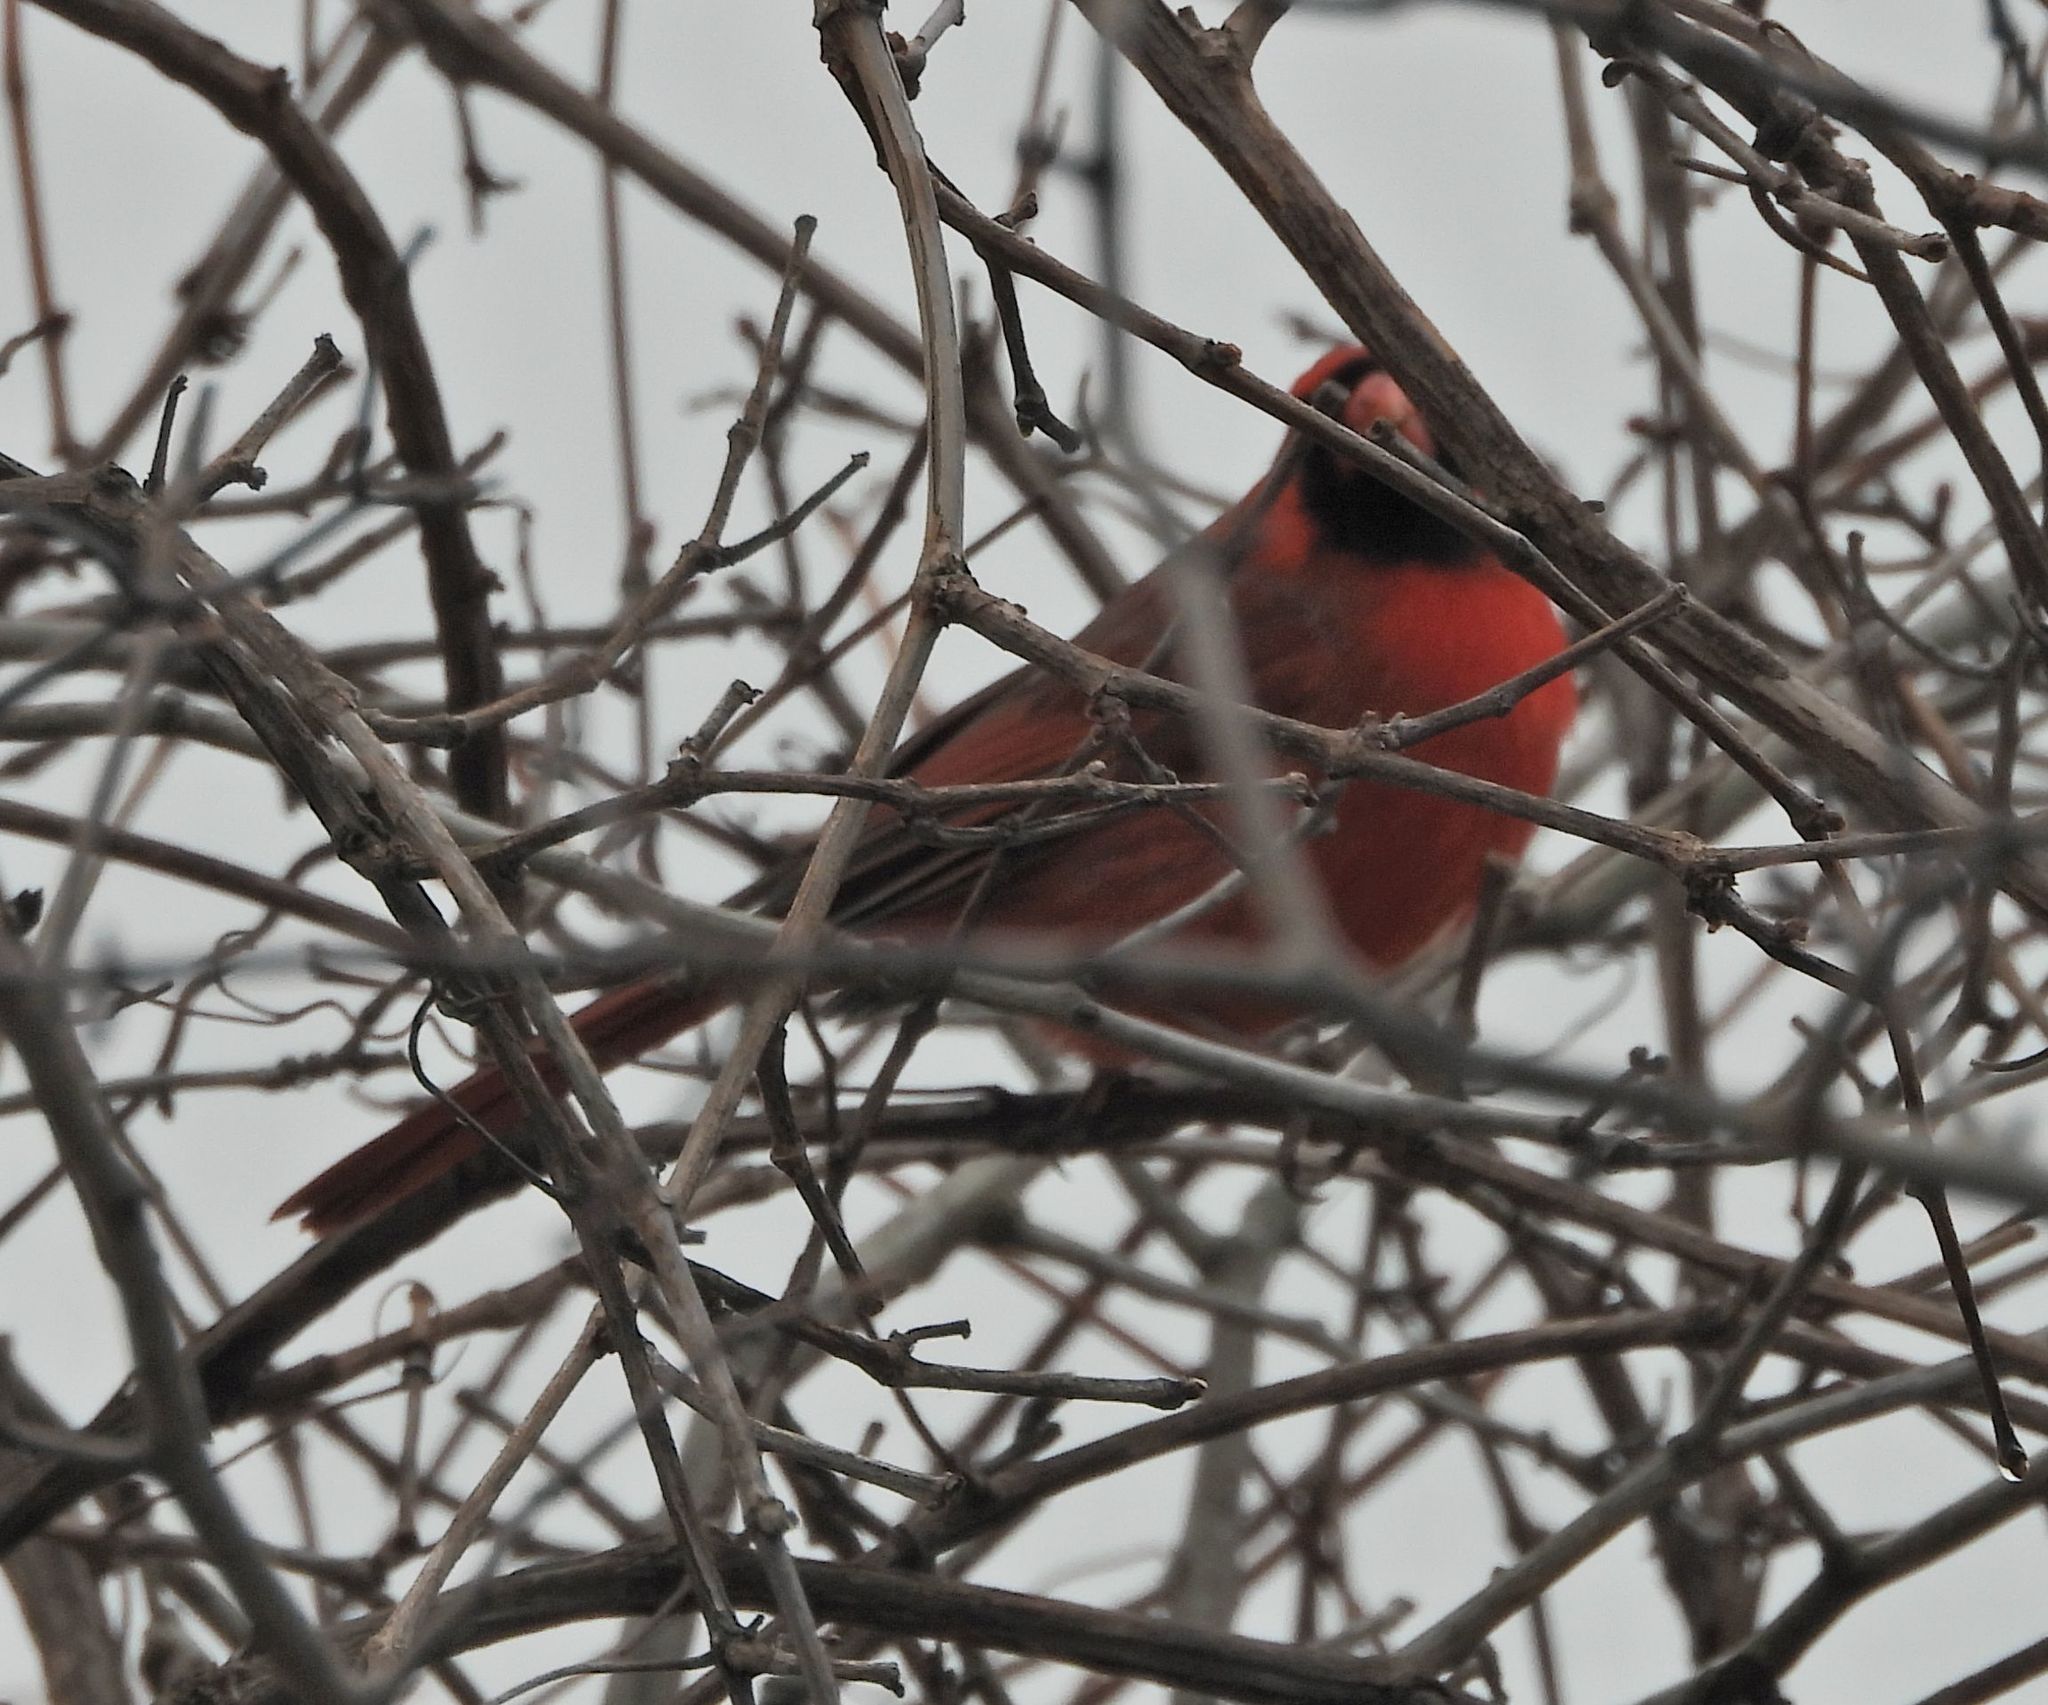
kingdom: Animalia
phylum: Chordata
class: Aves
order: Passeriformes
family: Cardinalidae
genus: Cardinalis
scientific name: Cardinalis cardinalis
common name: Northern cardinal
